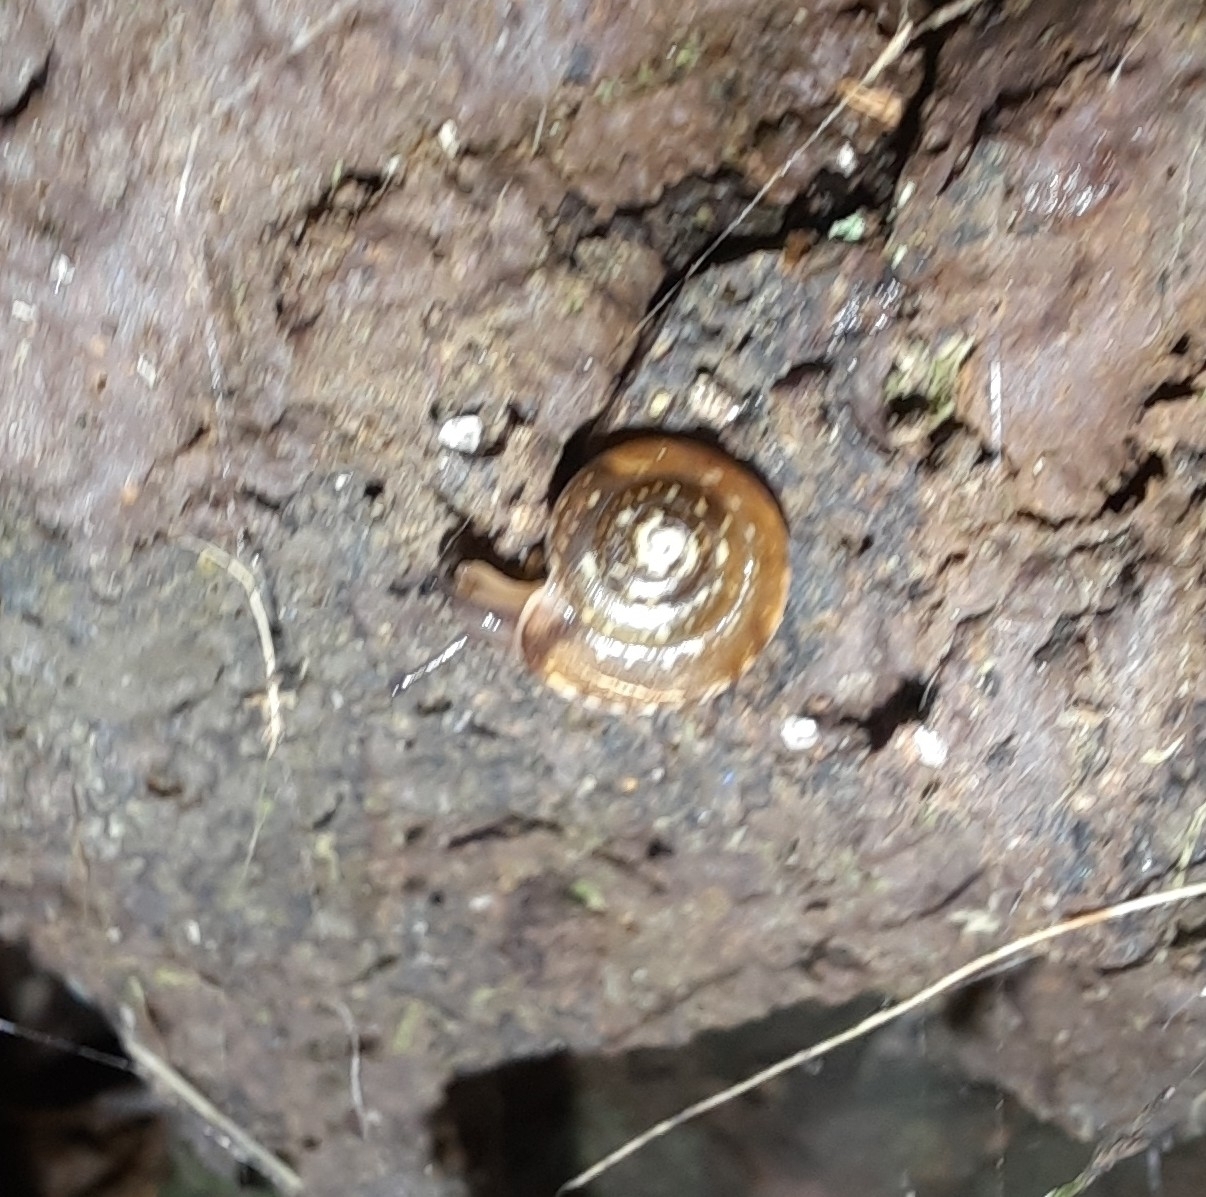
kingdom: Animalia
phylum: Mollusca
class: Gastropoda
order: Stylommatophora
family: Hygromiidae
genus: Hygromia
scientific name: Hygromia cinctella
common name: Girdled snail
